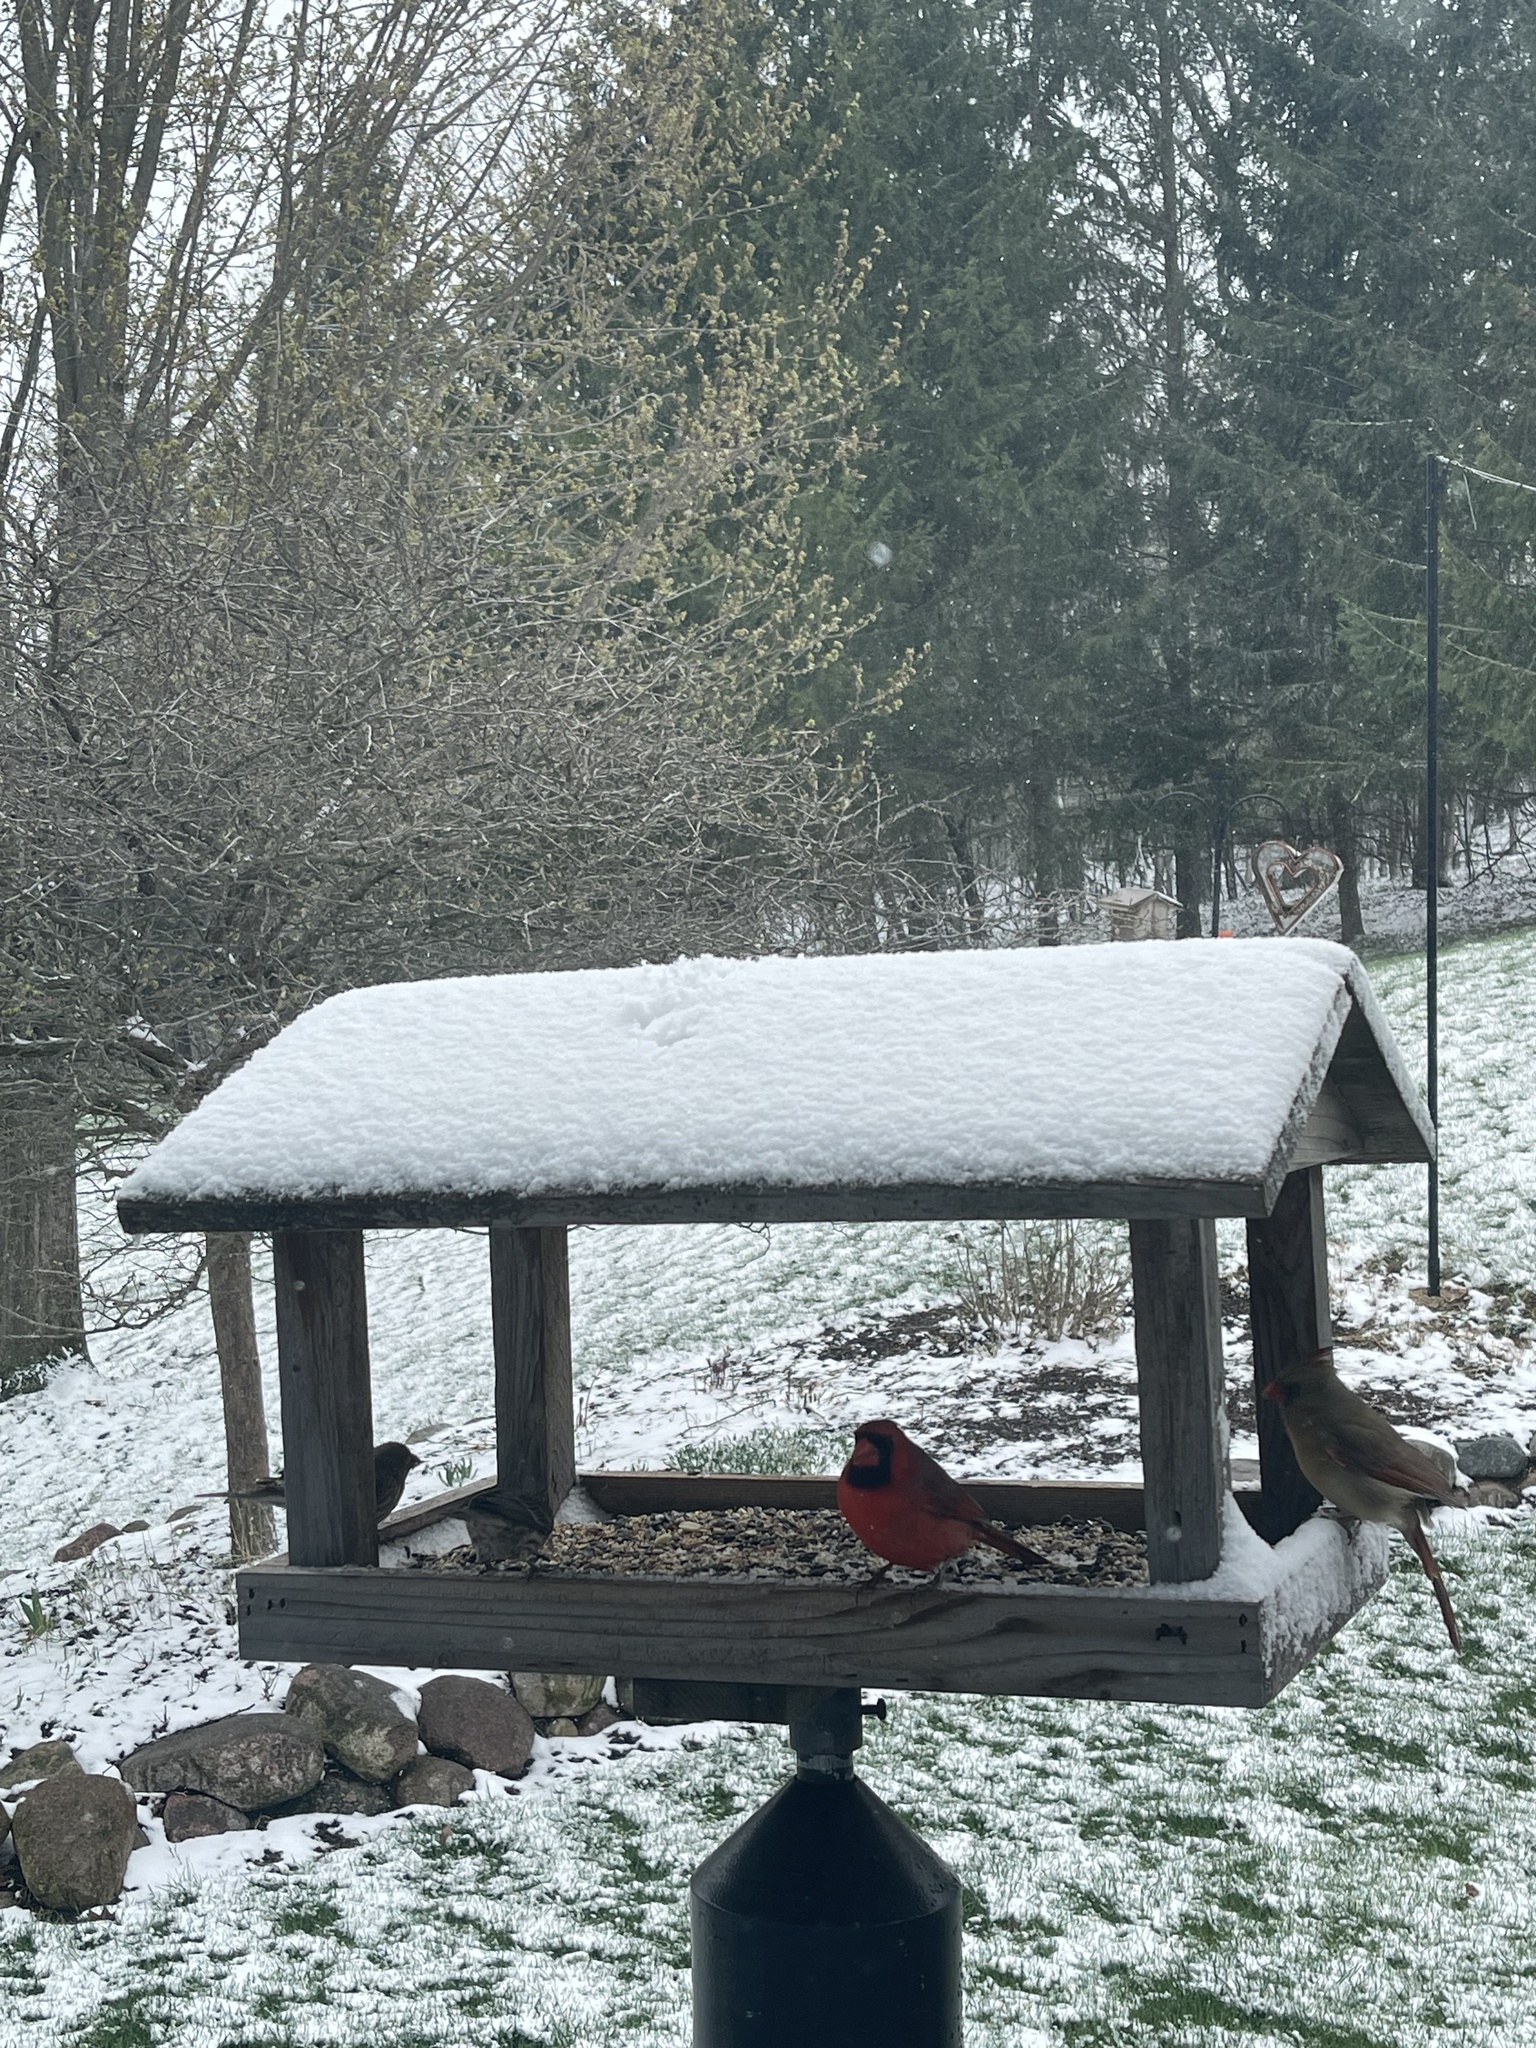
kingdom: Animalia
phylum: Chordata
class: Aves
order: Passeriformes
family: Fringillidae
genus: Haemorhous
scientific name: Haemorhous mexicanus
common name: House finch
